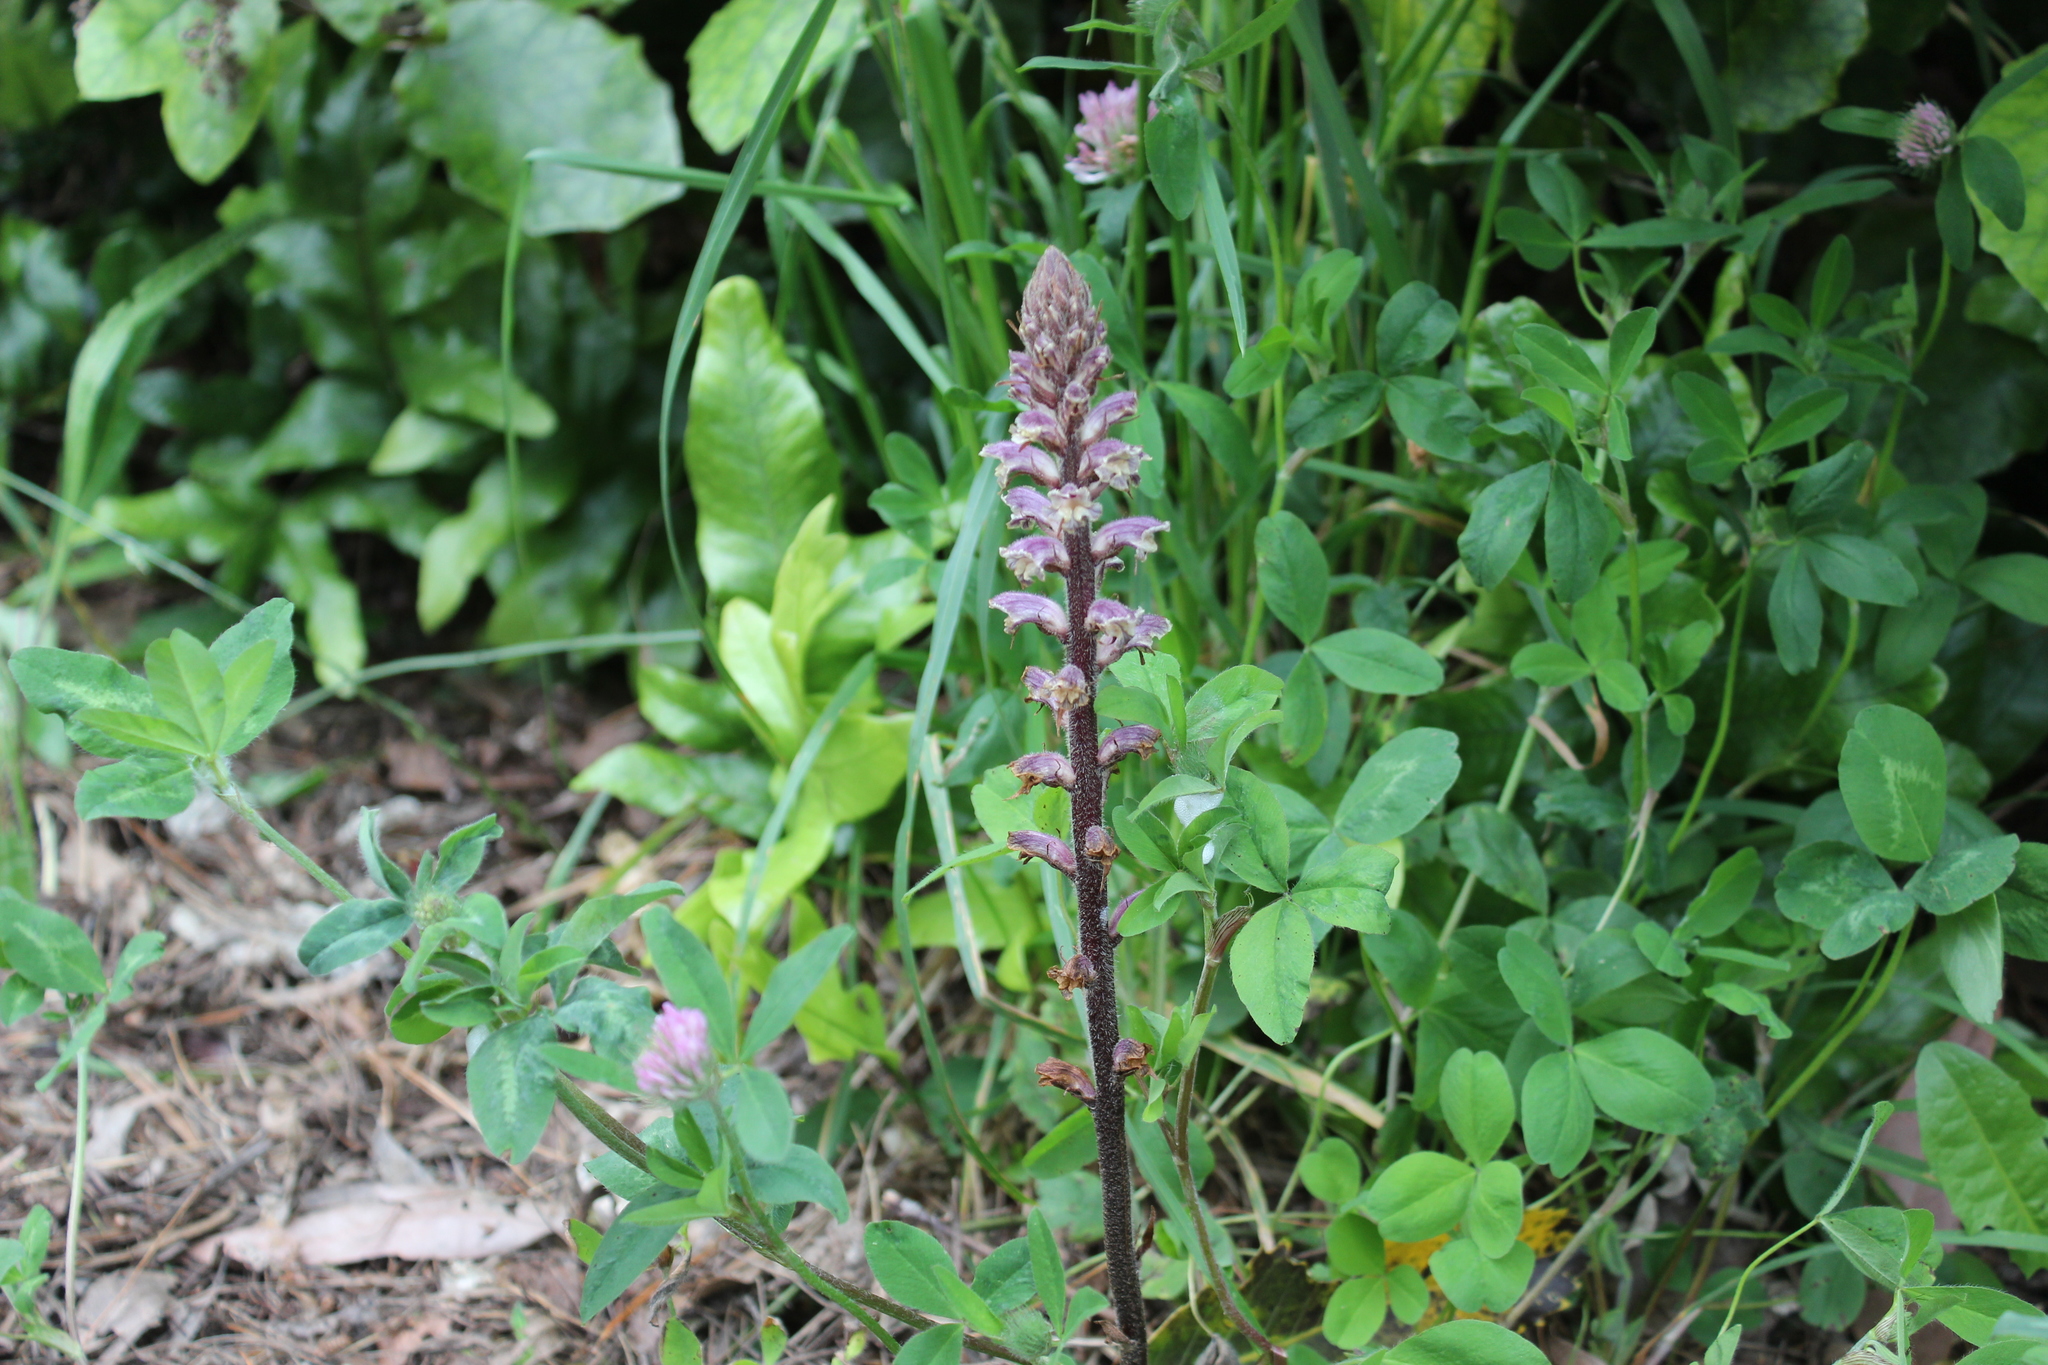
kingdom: Plantae
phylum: Tracheophyta
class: Magnoliopsida
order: Lamiales
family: Orobanchaceae
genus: Orobanche
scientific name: Orobanche minor
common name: Common broomrape
